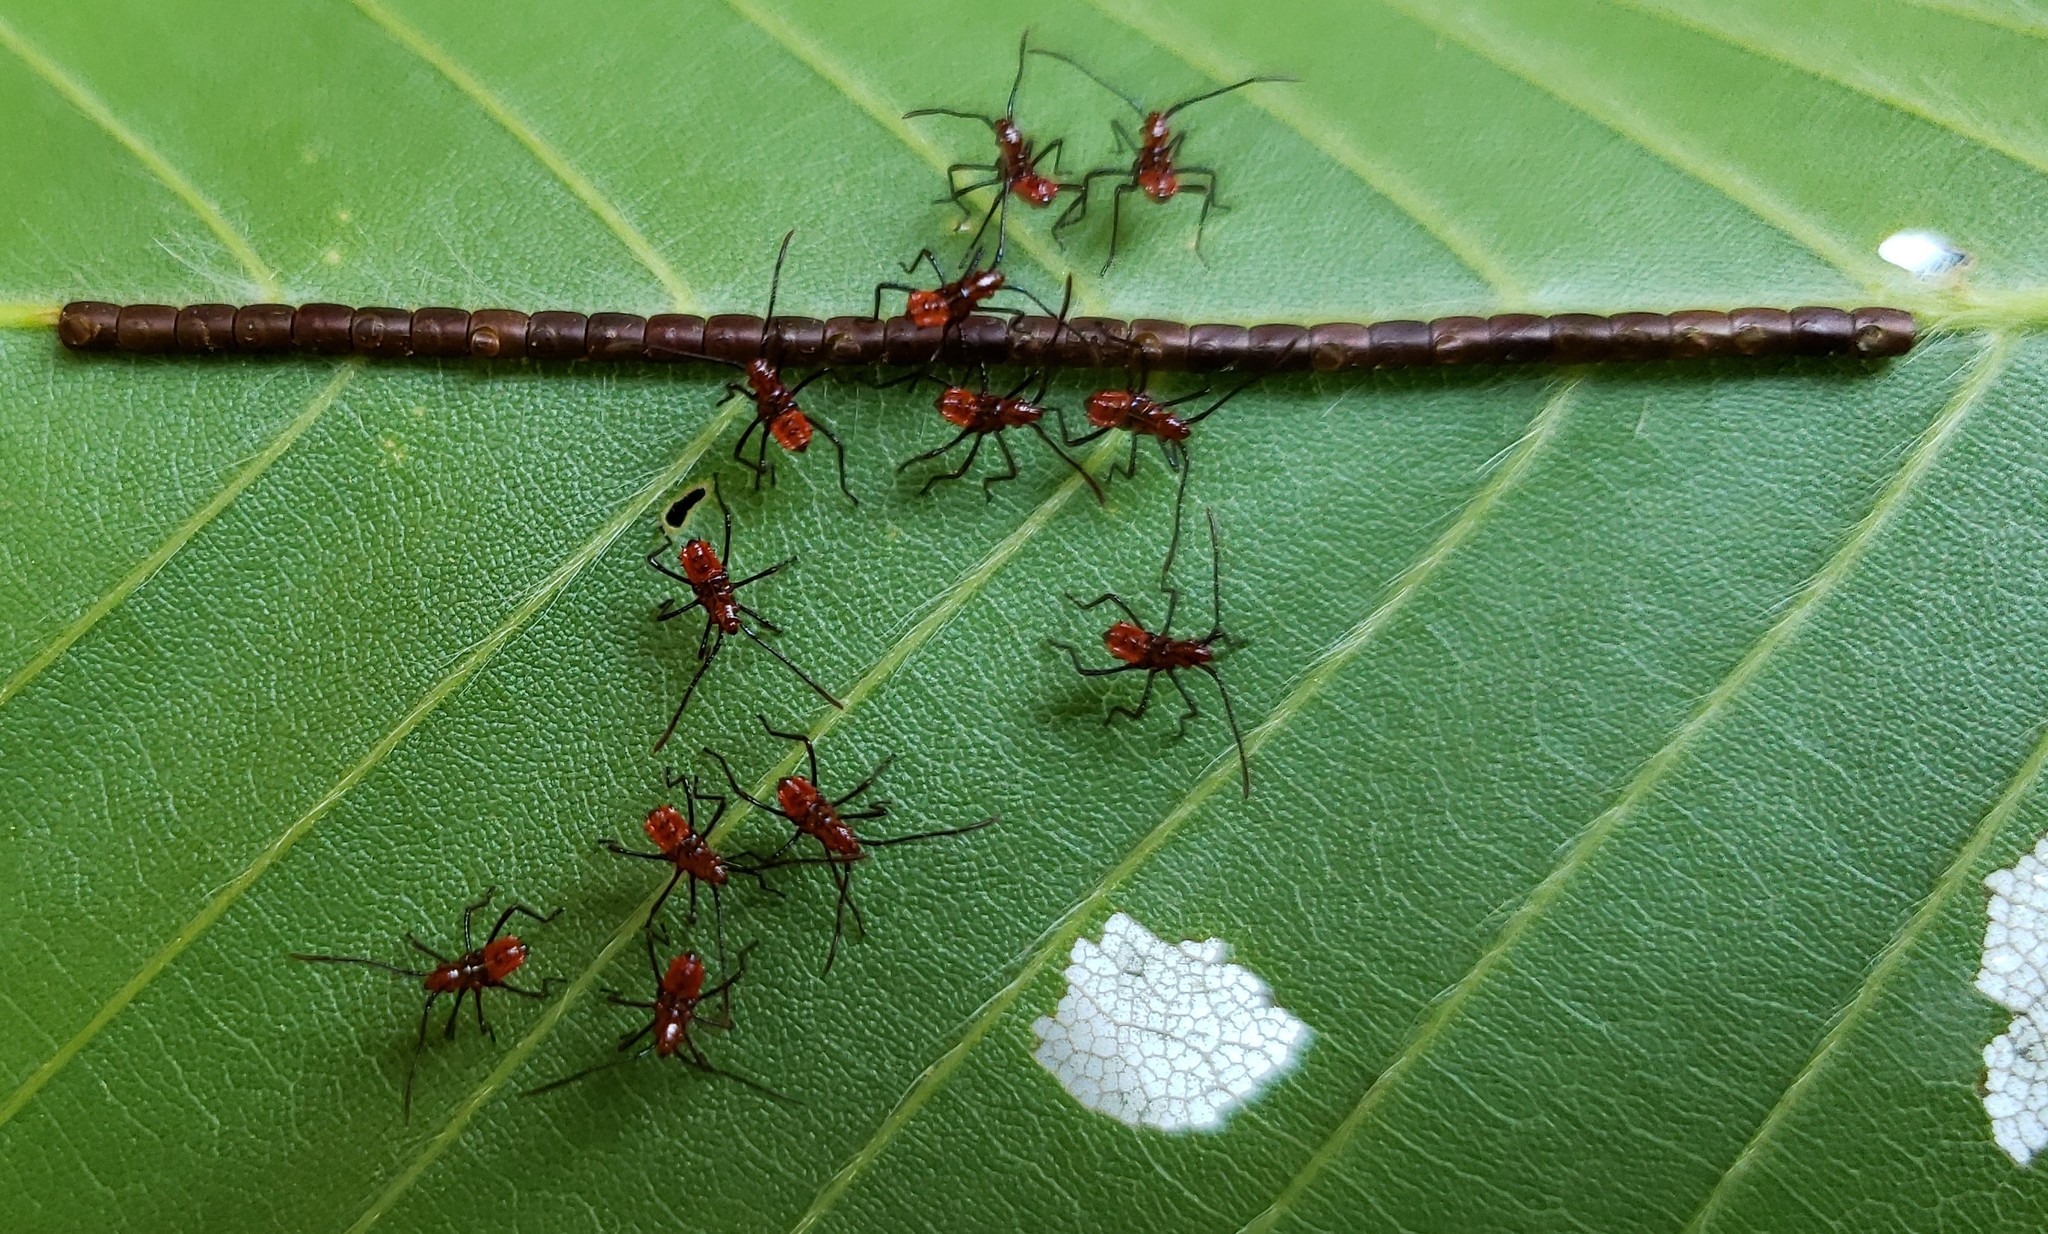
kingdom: Animalia
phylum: Arthropoda
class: Insecta
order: Hemiptera
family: Coreidae
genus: Leptoglossus
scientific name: Leptoglossus phyllopus
